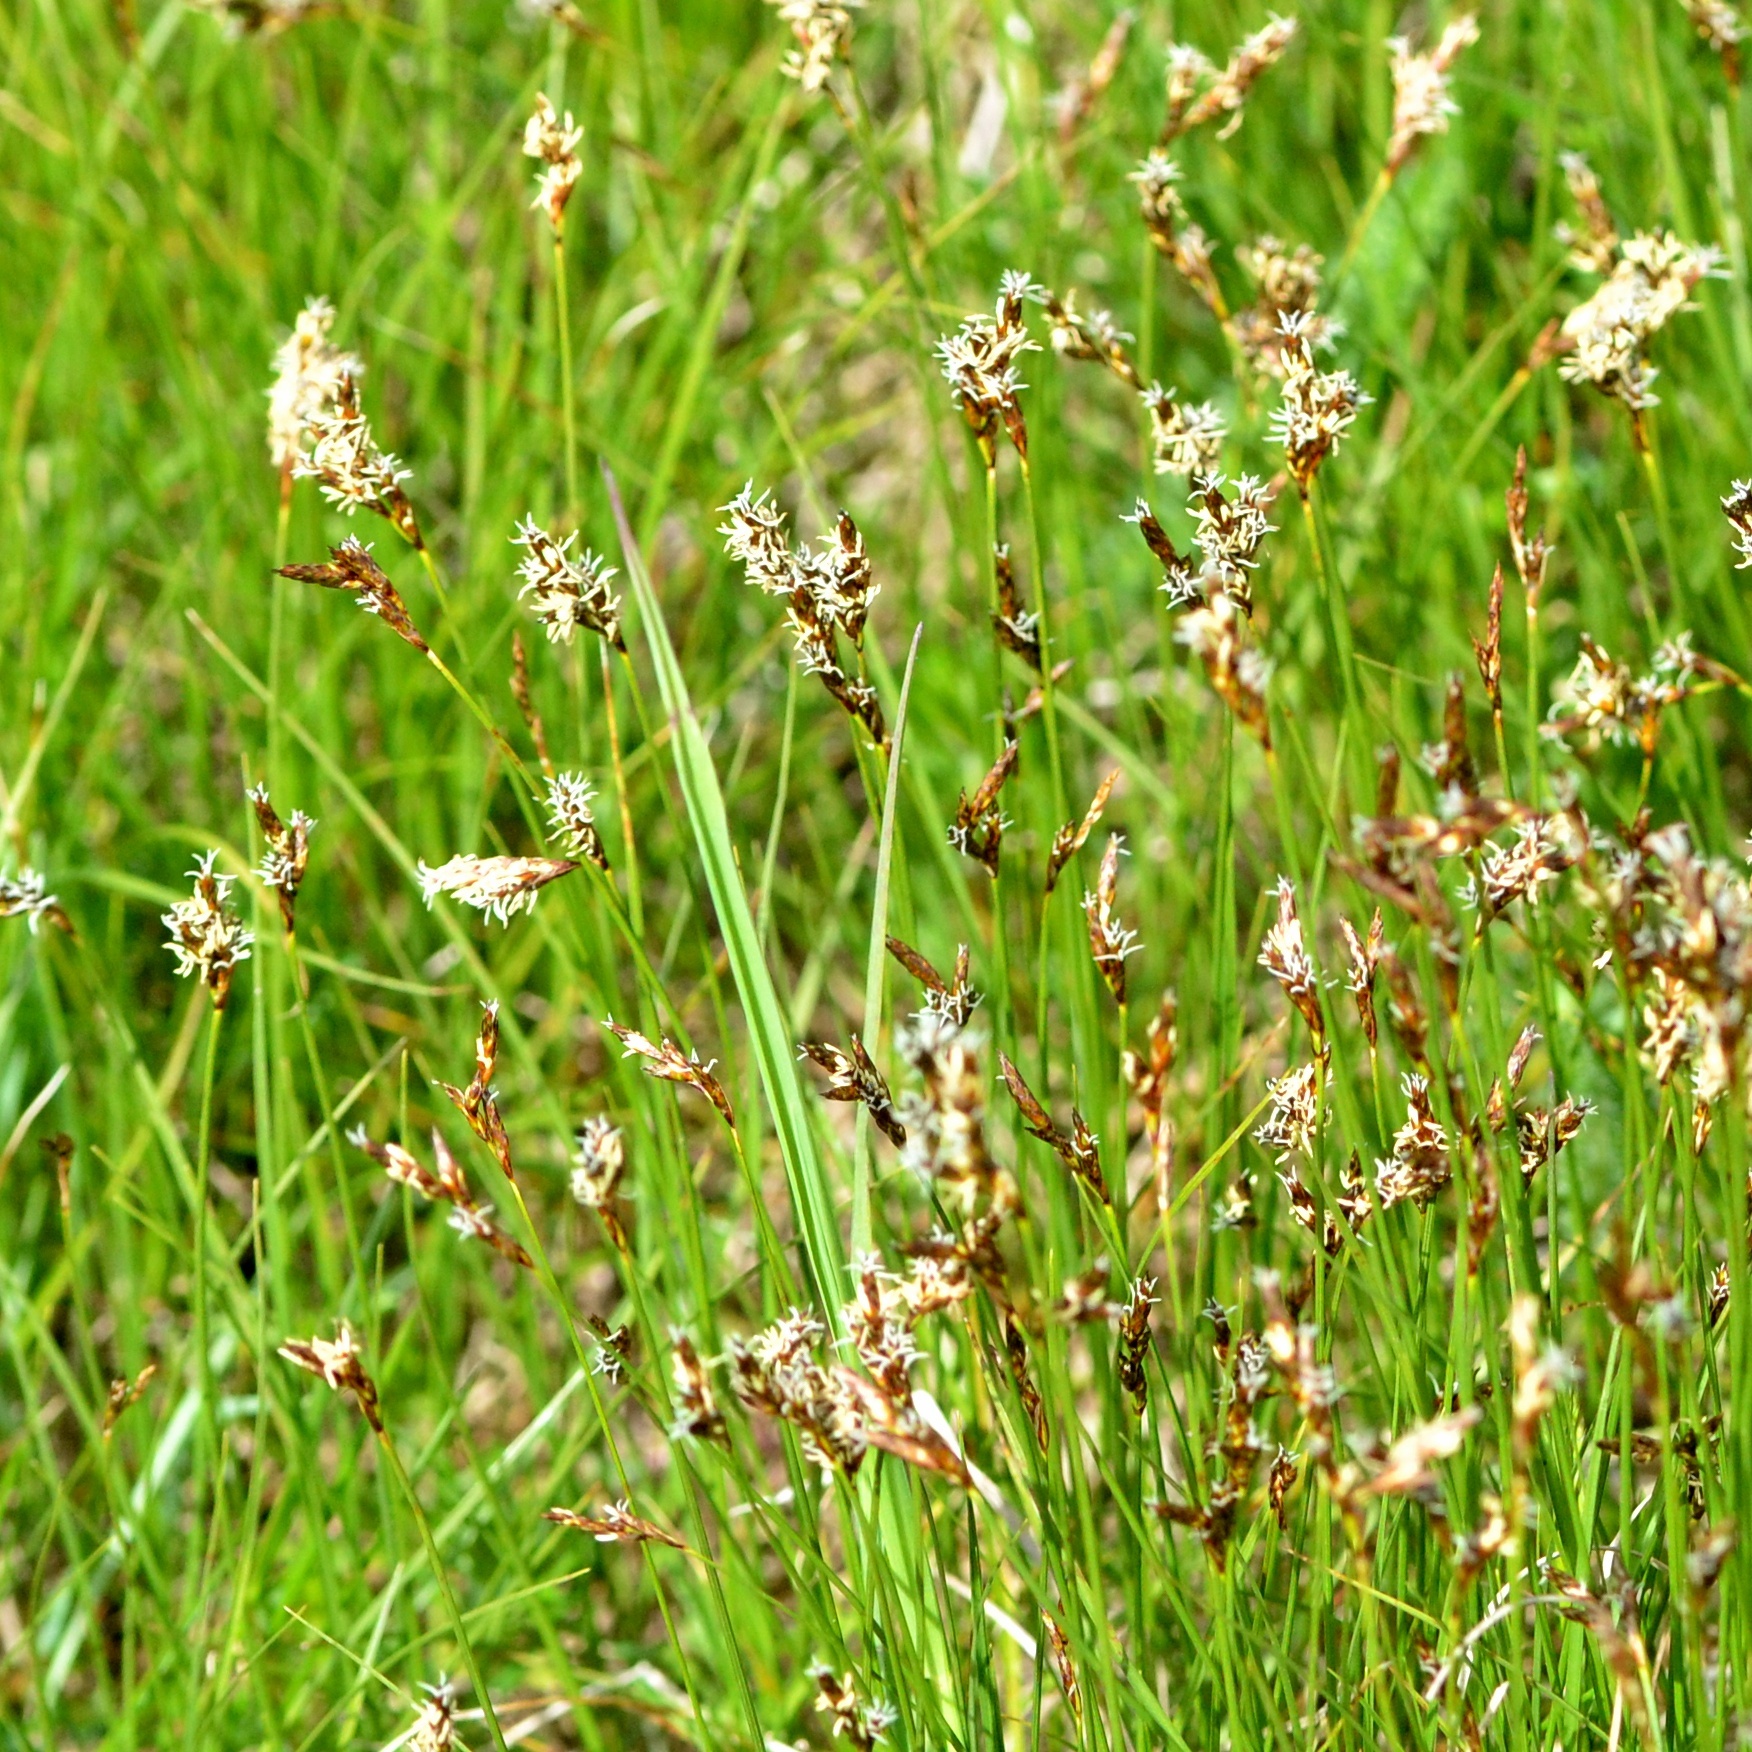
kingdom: Plantae
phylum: Tracheophyta
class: Liliopsida
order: Poales
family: Cyperaceae
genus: Carex
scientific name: Carex praecox
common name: Early sedge
